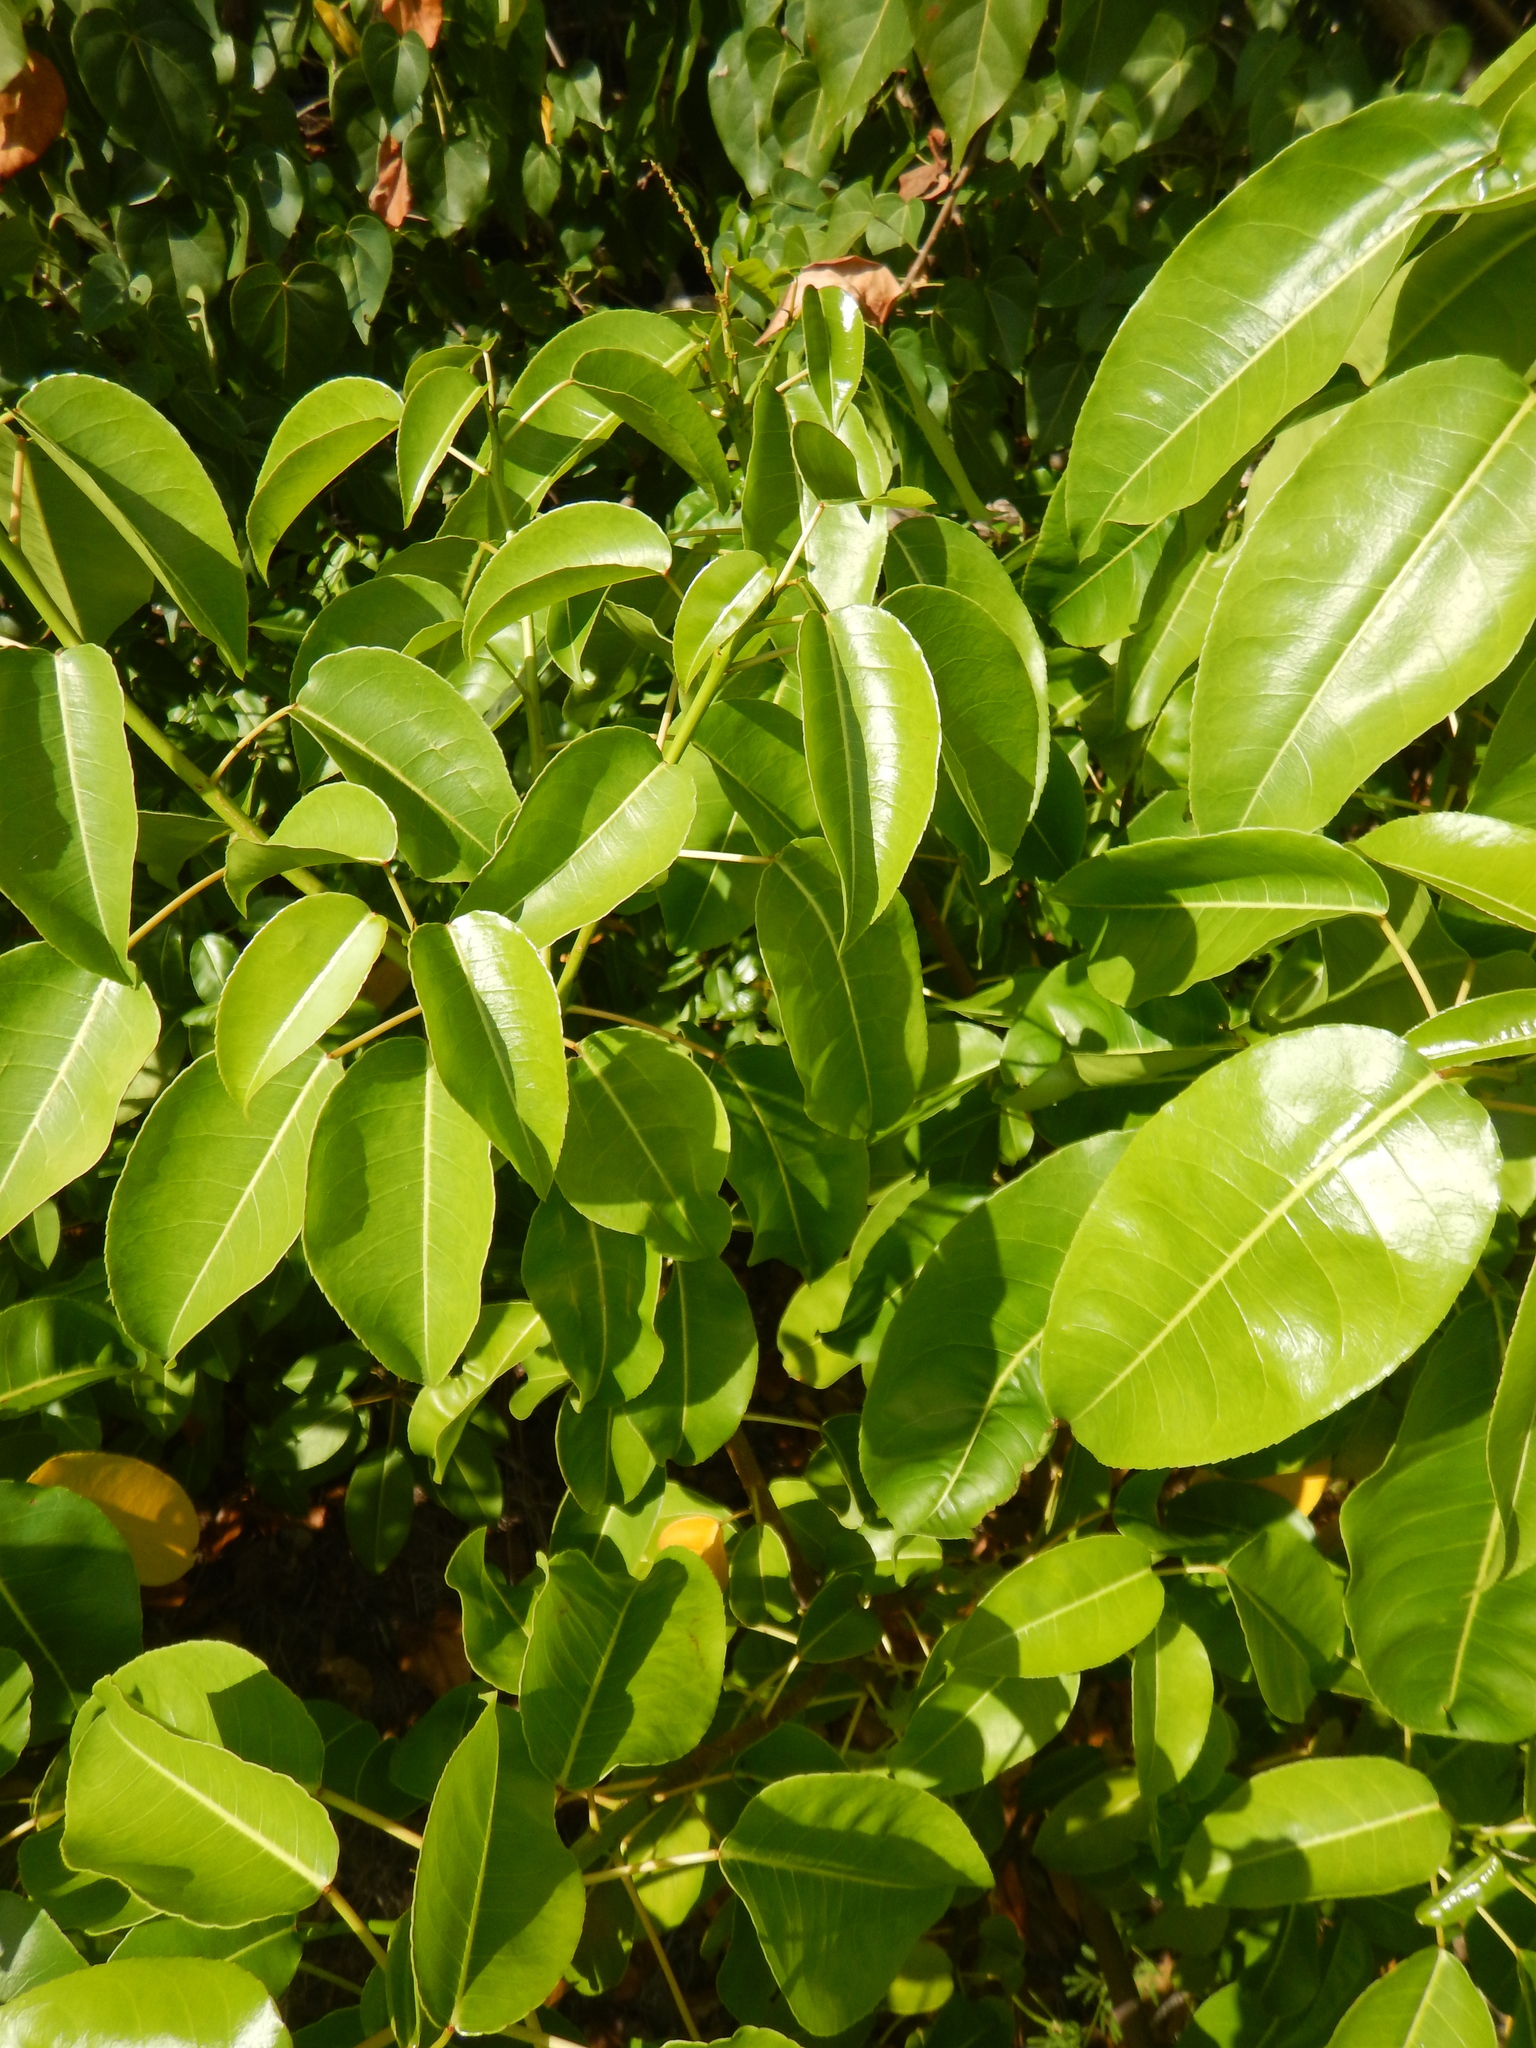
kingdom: Plantae
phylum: Tracheophyta
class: Magnoliopsida
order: Malpighiales
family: Euphorbiaceae
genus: Hippomane
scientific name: Hippomane mancinella
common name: Manchineel
